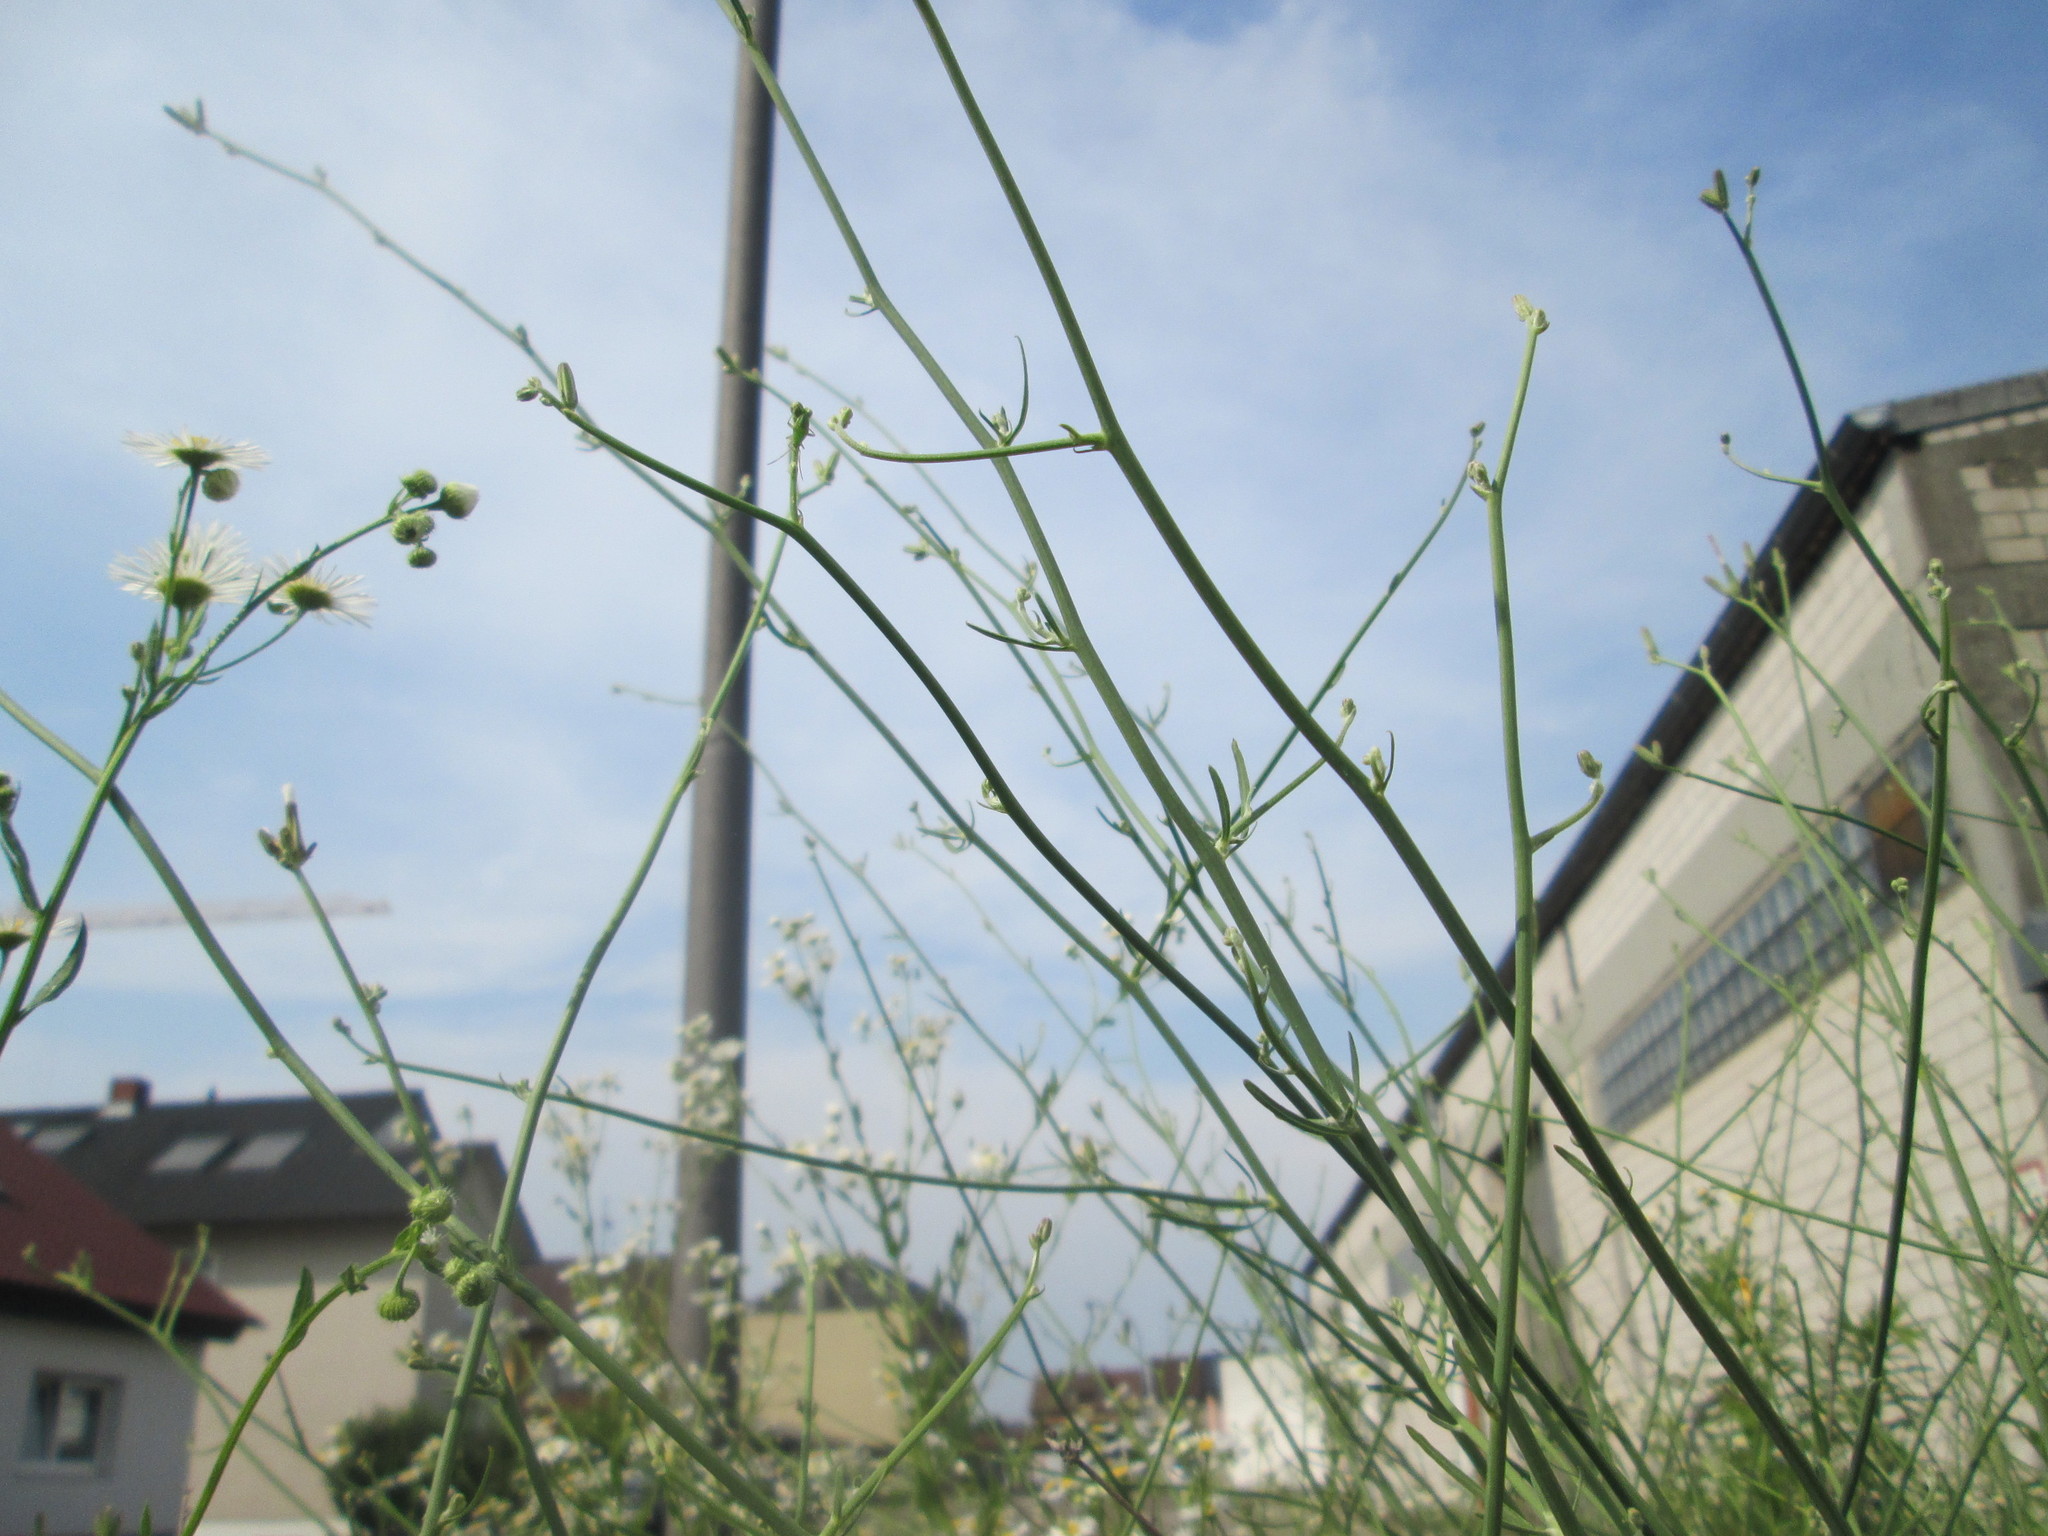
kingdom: Plantae
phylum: Tracheophyta
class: Magnoliopsida
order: Asterales
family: Asteraceae
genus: Chondrilla
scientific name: Chondrilla juncea
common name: Skeleton weed
